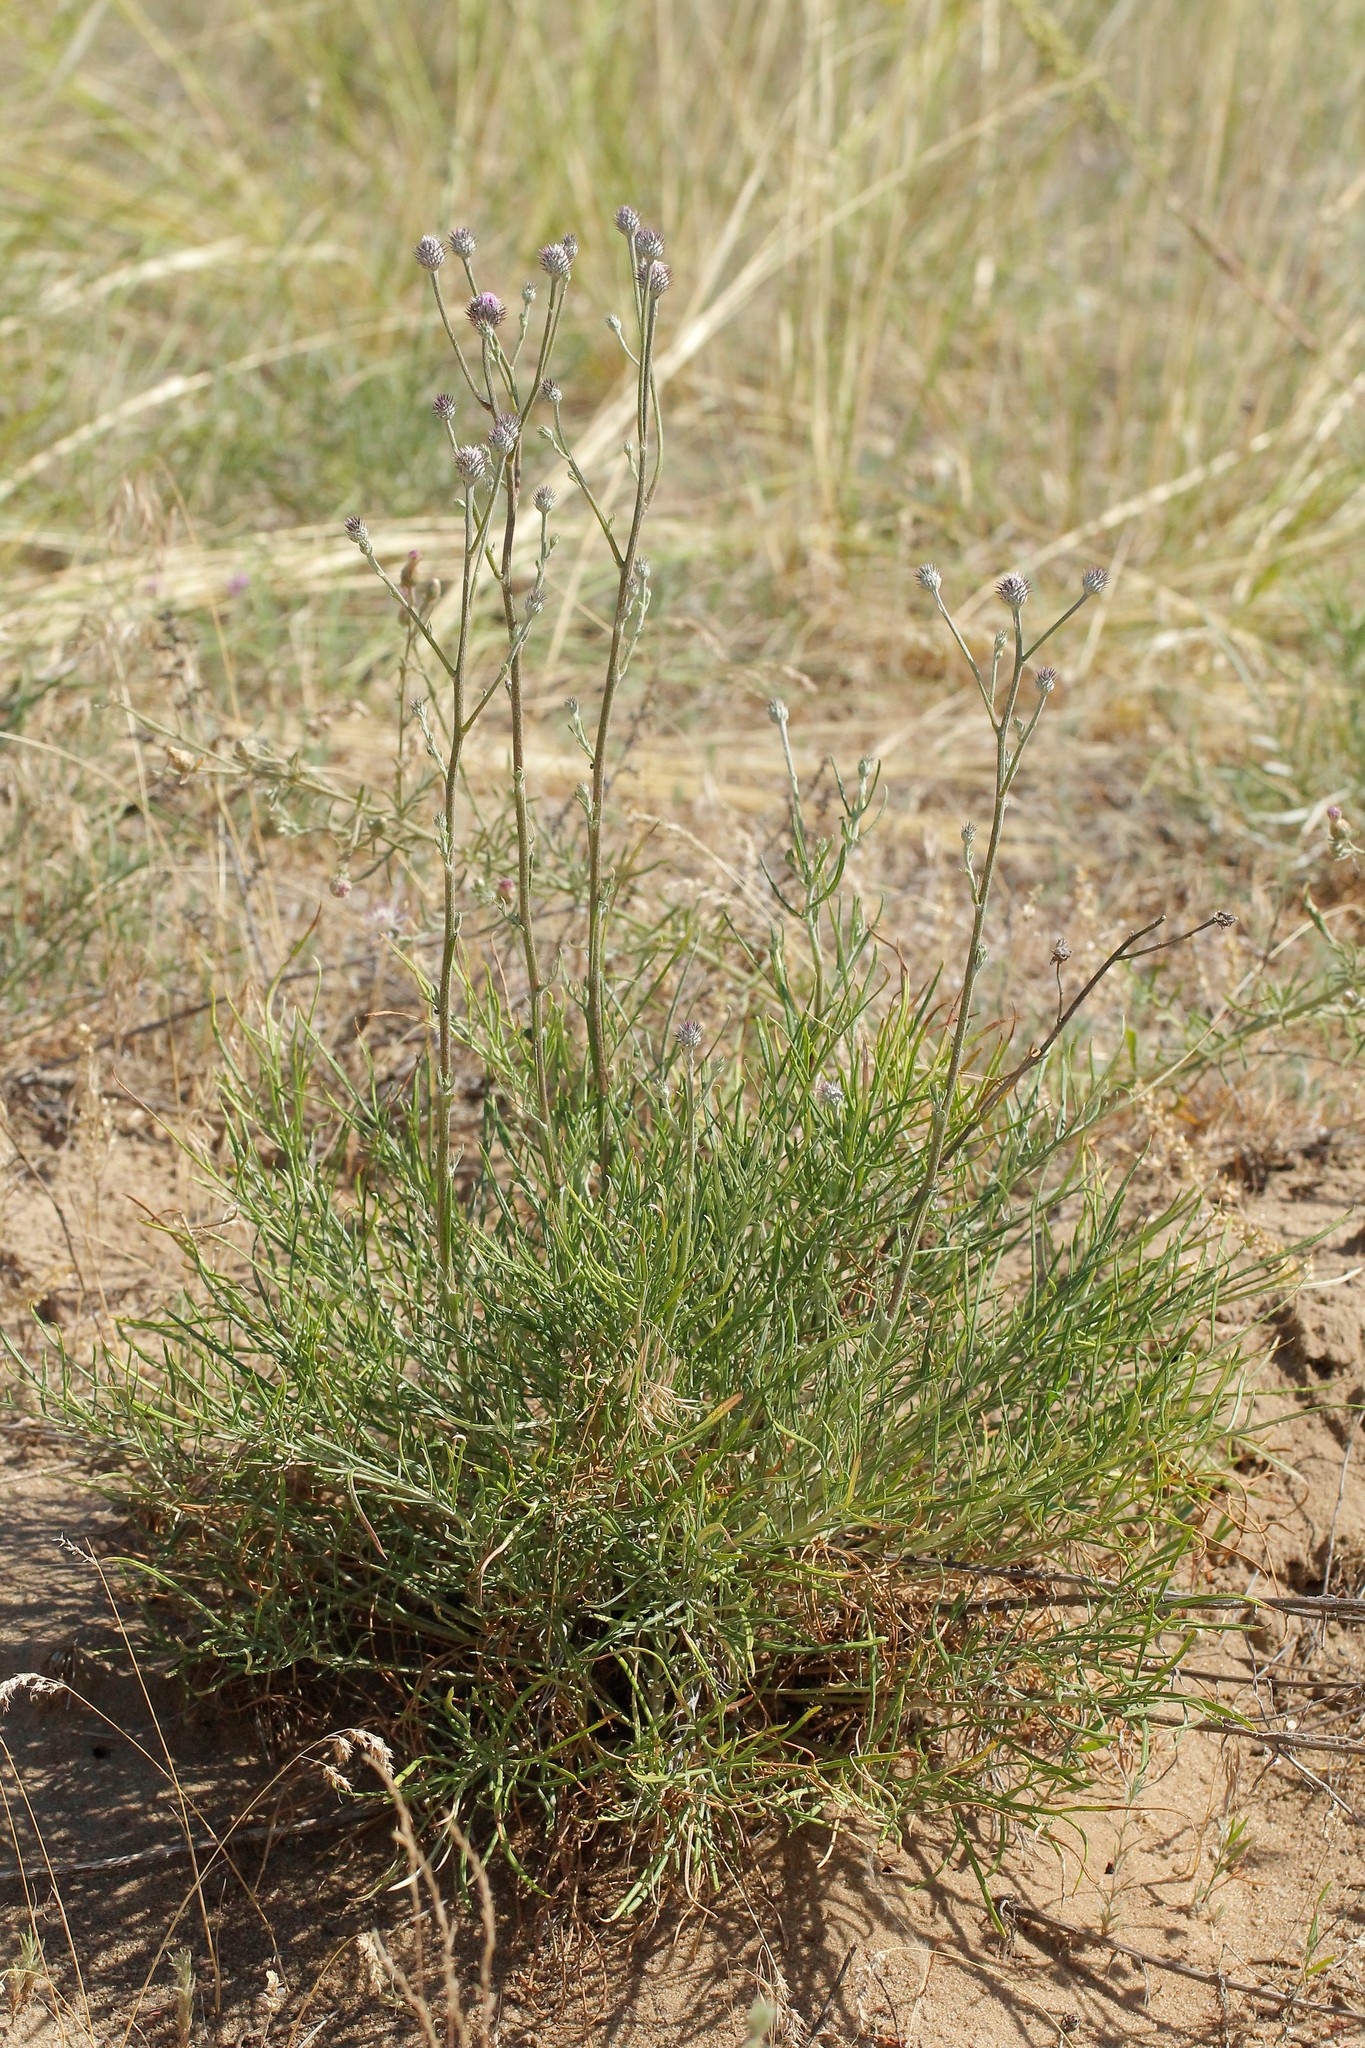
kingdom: Plantae
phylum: Tracheophyta
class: Magnoliopsida
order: Asterales
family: Asteraceae
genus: Jurinea
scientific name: Jurinea polyclonos
